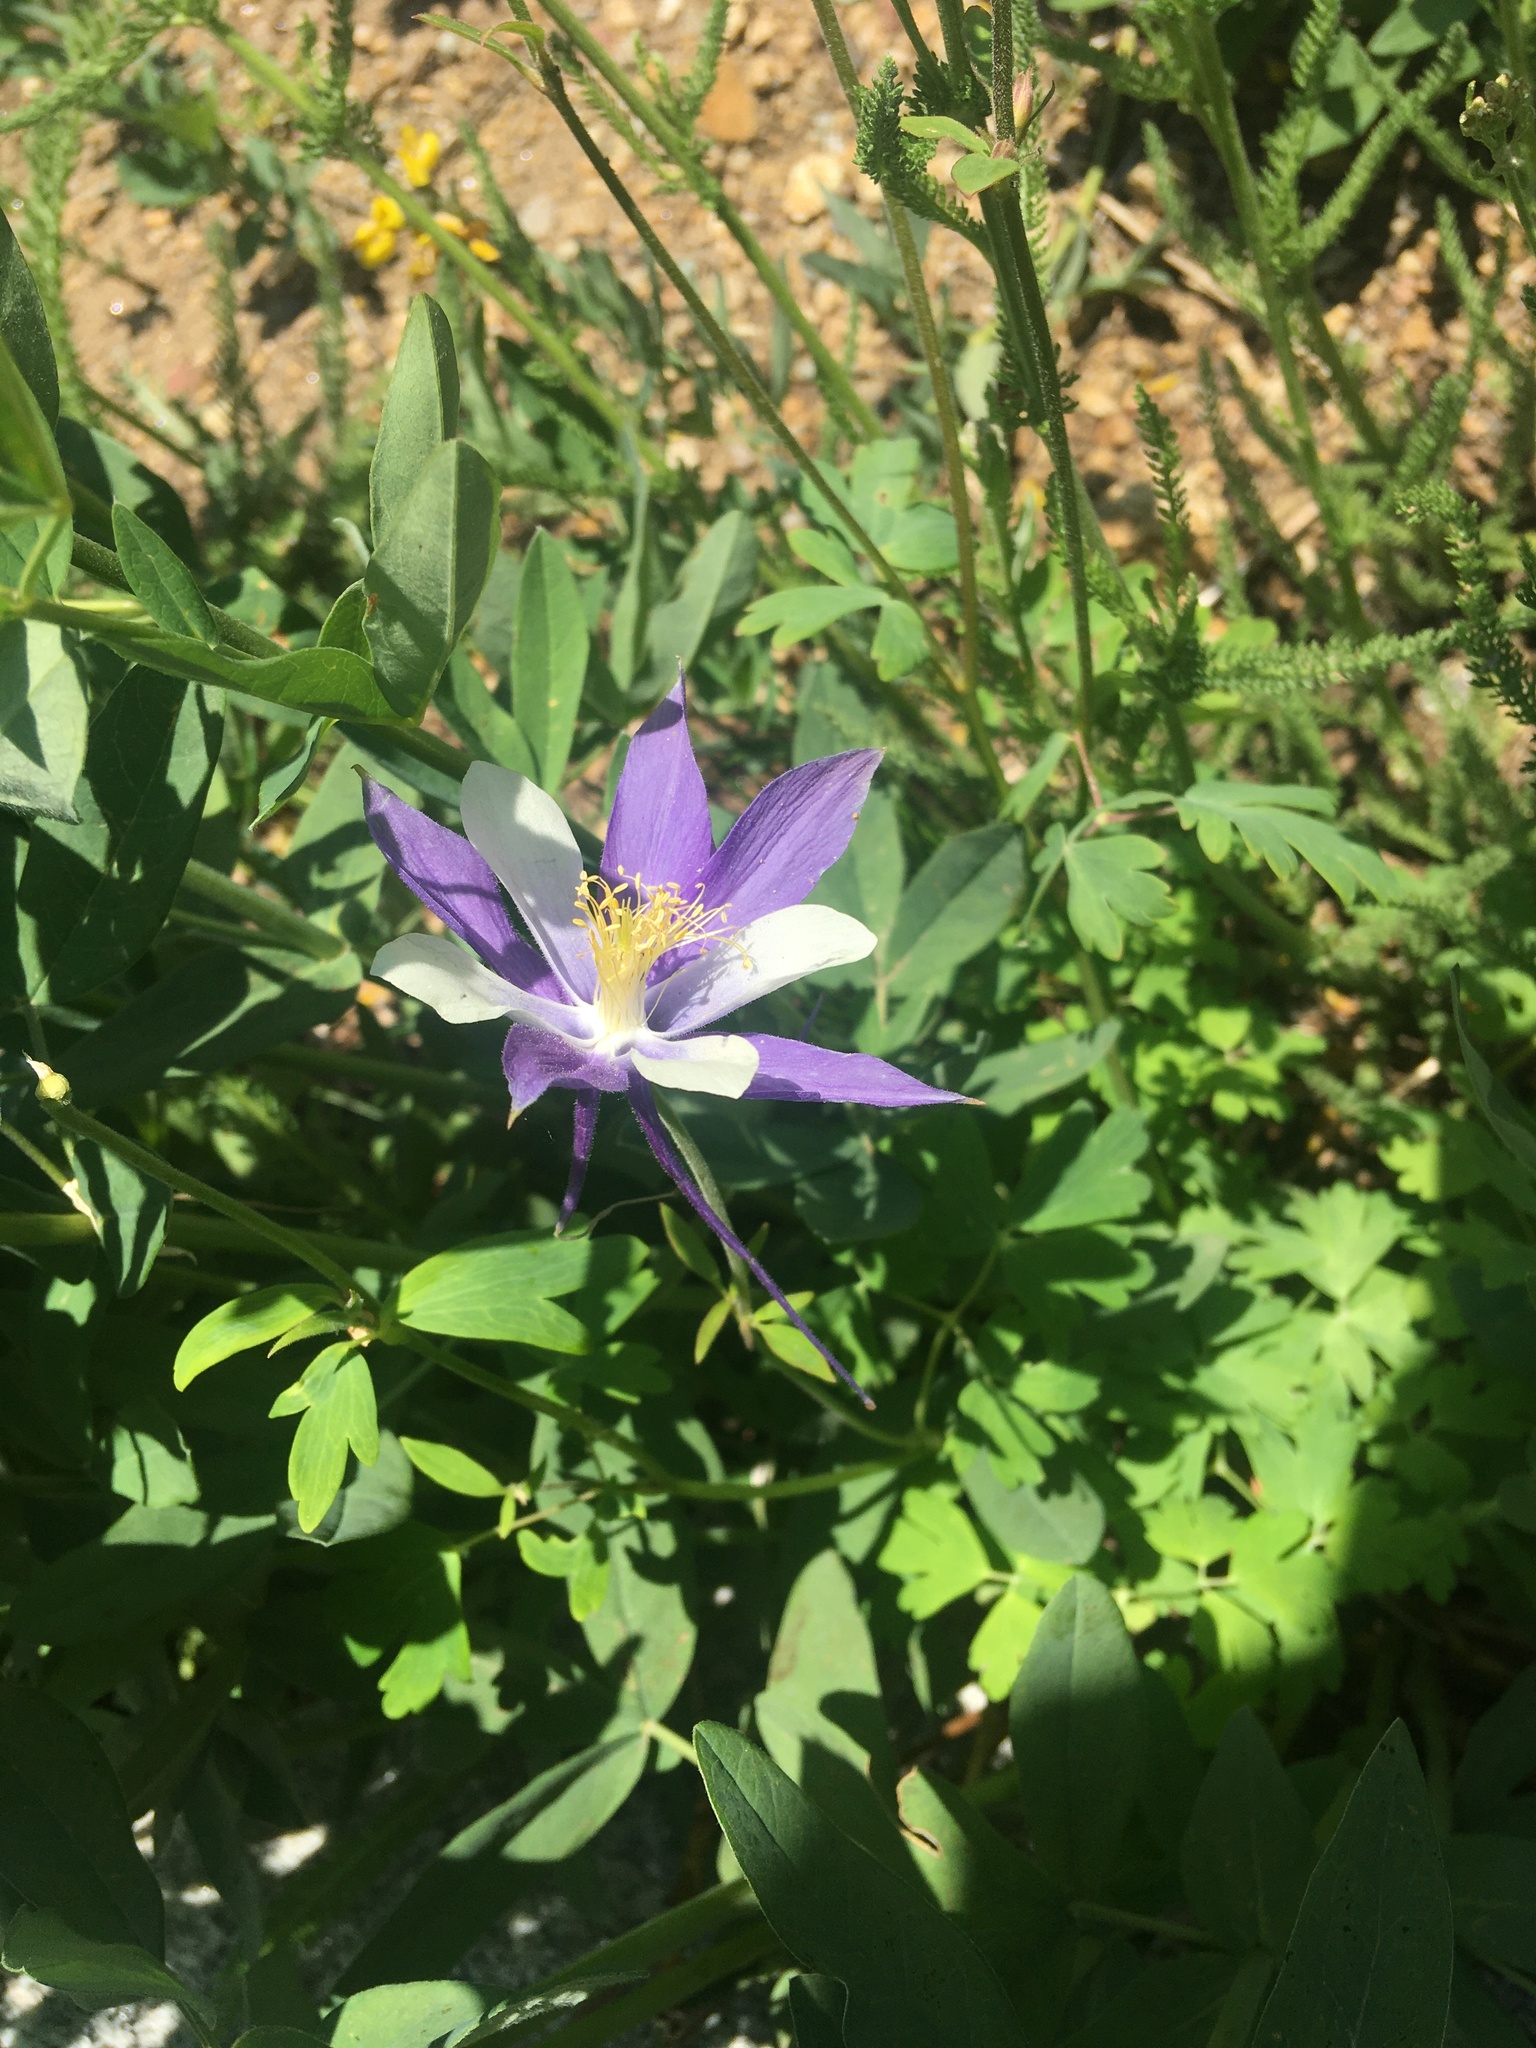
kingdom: Plantae
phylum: Tracheophyta
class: Magnoliopsida
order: Ranunculales
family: Ranunculaceae
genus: Aquilegia
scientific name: Aquilegia coerulea
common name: Rocky mountain columbine
